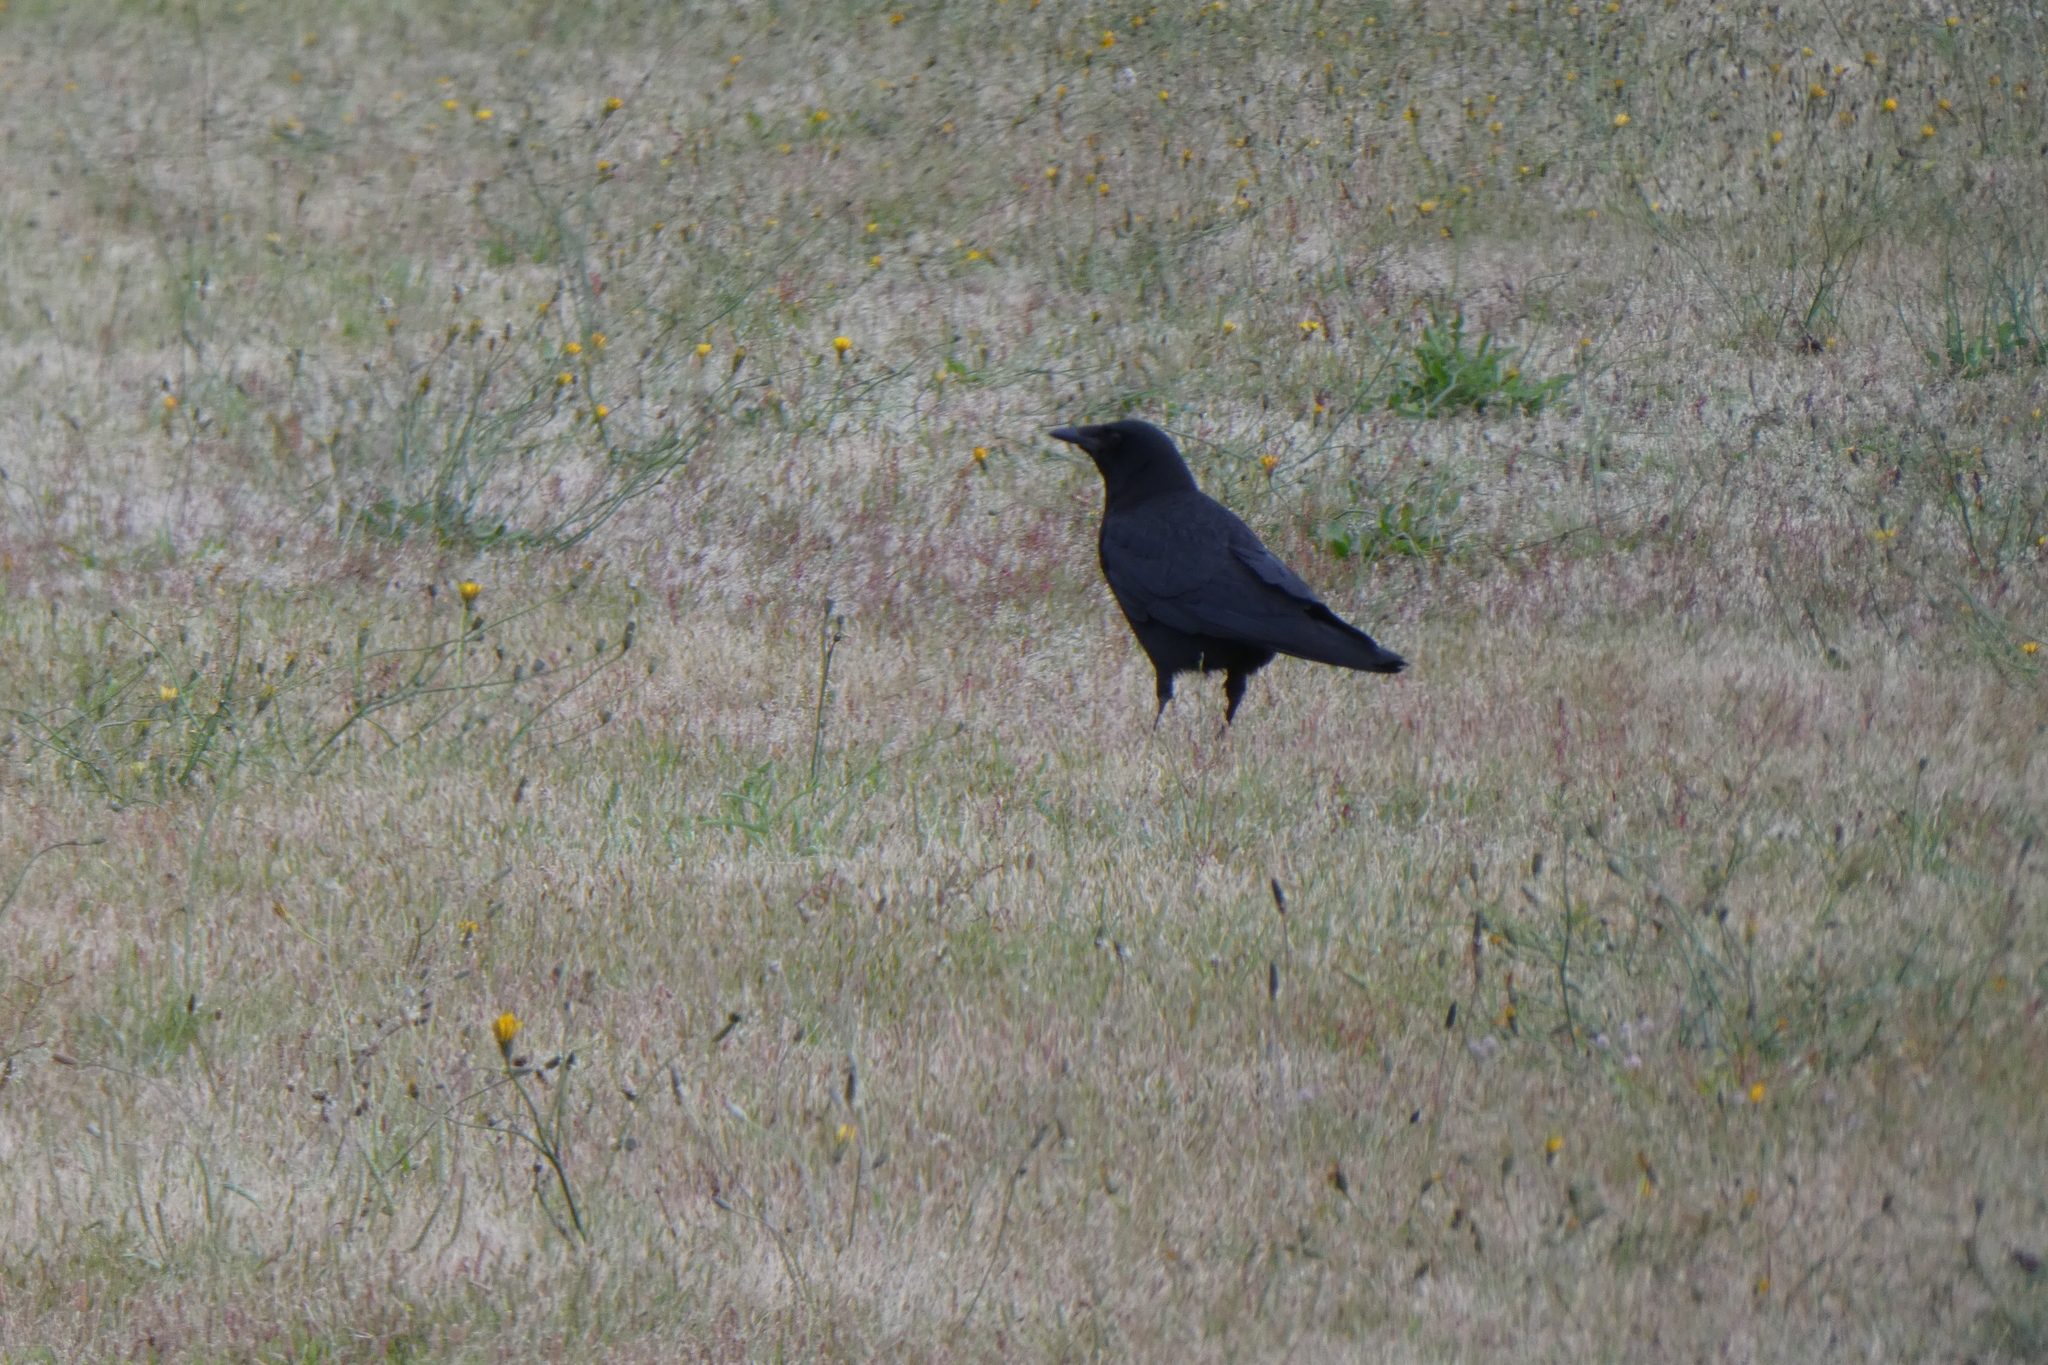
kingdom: Animalia
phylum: Chordata
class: Aves
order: Passeriformes
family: Corvidae
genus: Corvus
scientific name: Corvus brachyrhynchos
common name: American crow
